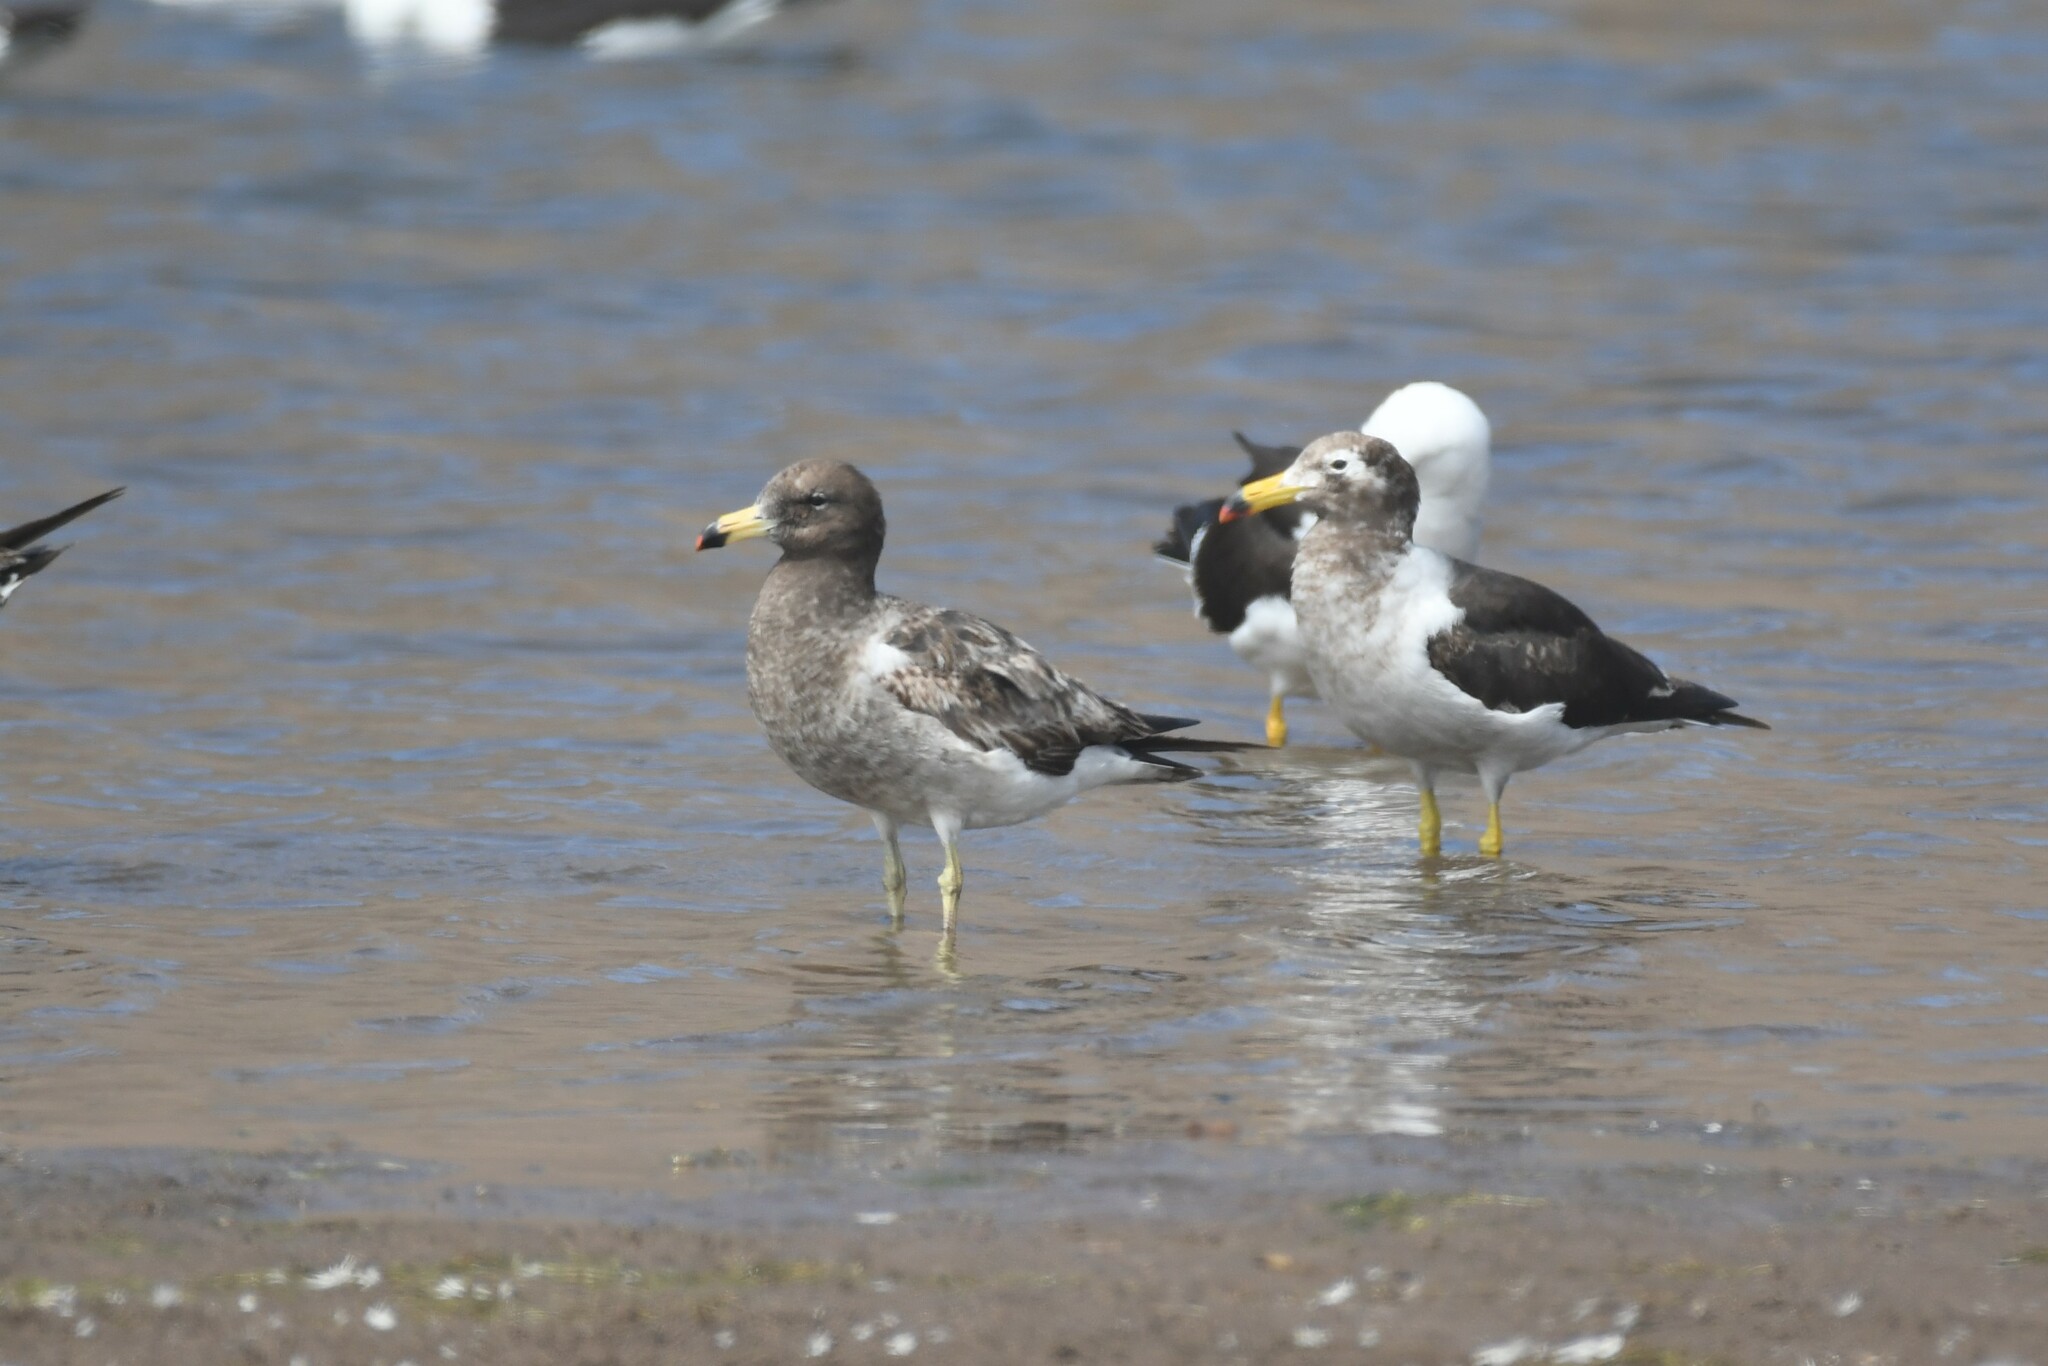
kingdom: Animalia
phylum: Chordata
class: Aves
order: Charadriiformes
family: Laridae
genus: Larus
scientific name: Larus belcheri
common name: Belcher's gull
